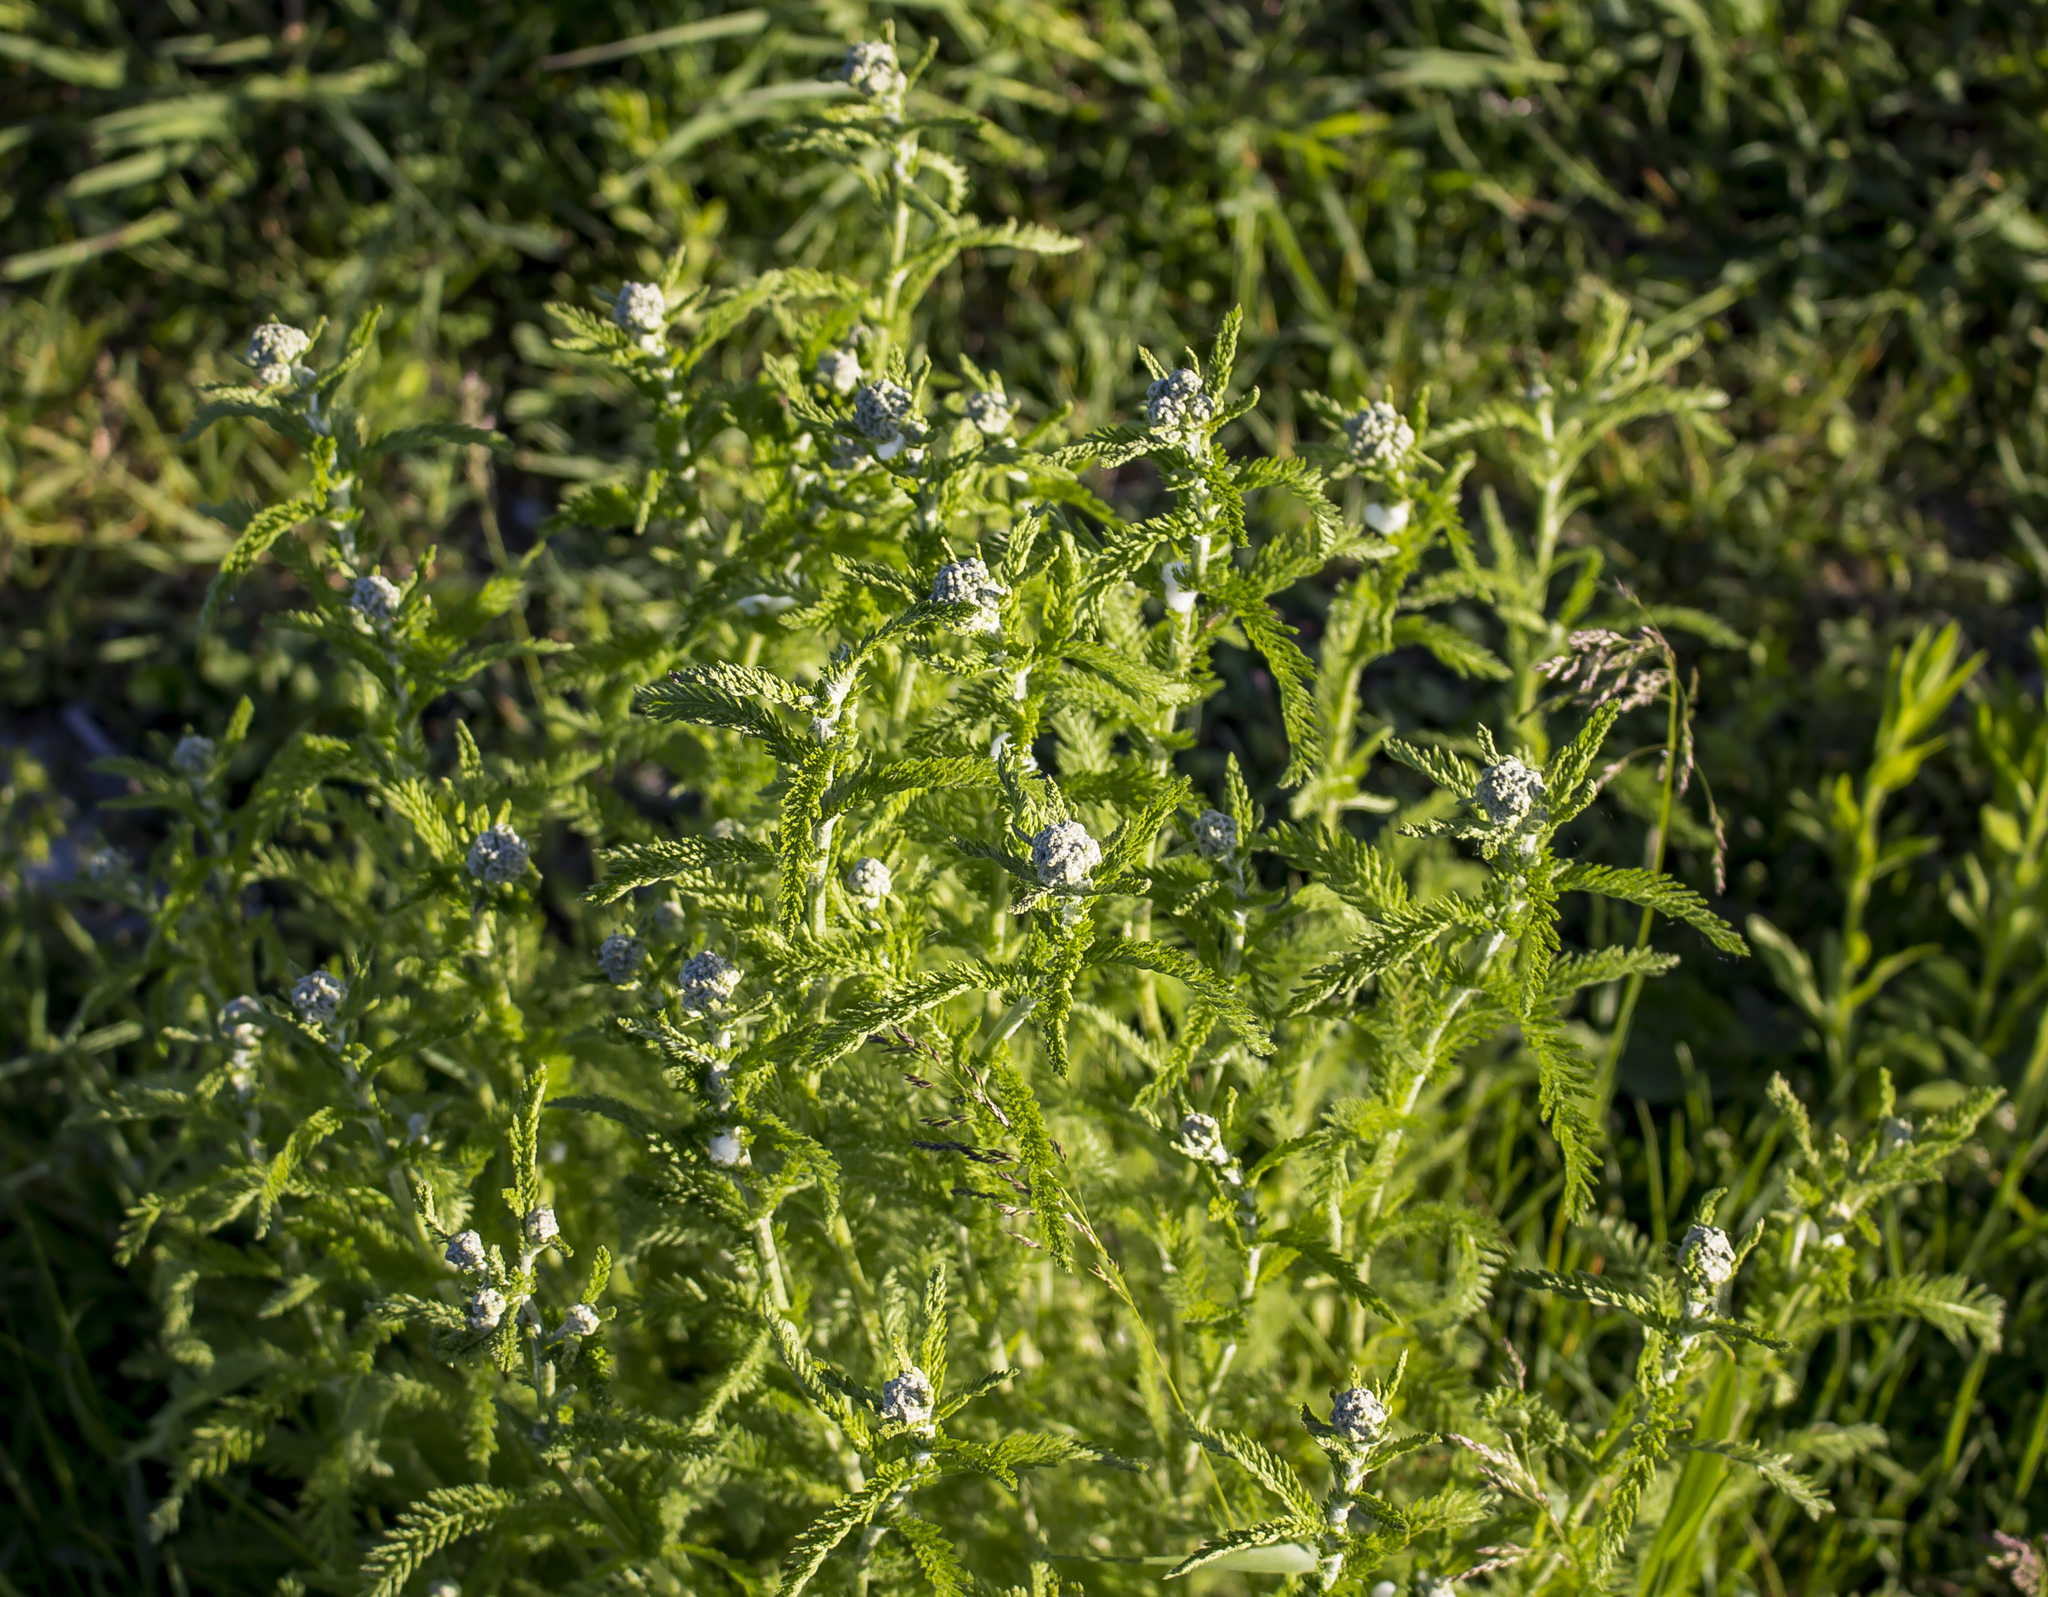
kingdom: Plantae
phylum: Tracheophyta
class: Magnoliopsida
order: Asterales
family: Asteraceae
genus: Achillea
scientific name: Achillea millefolium
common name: Yarrow
